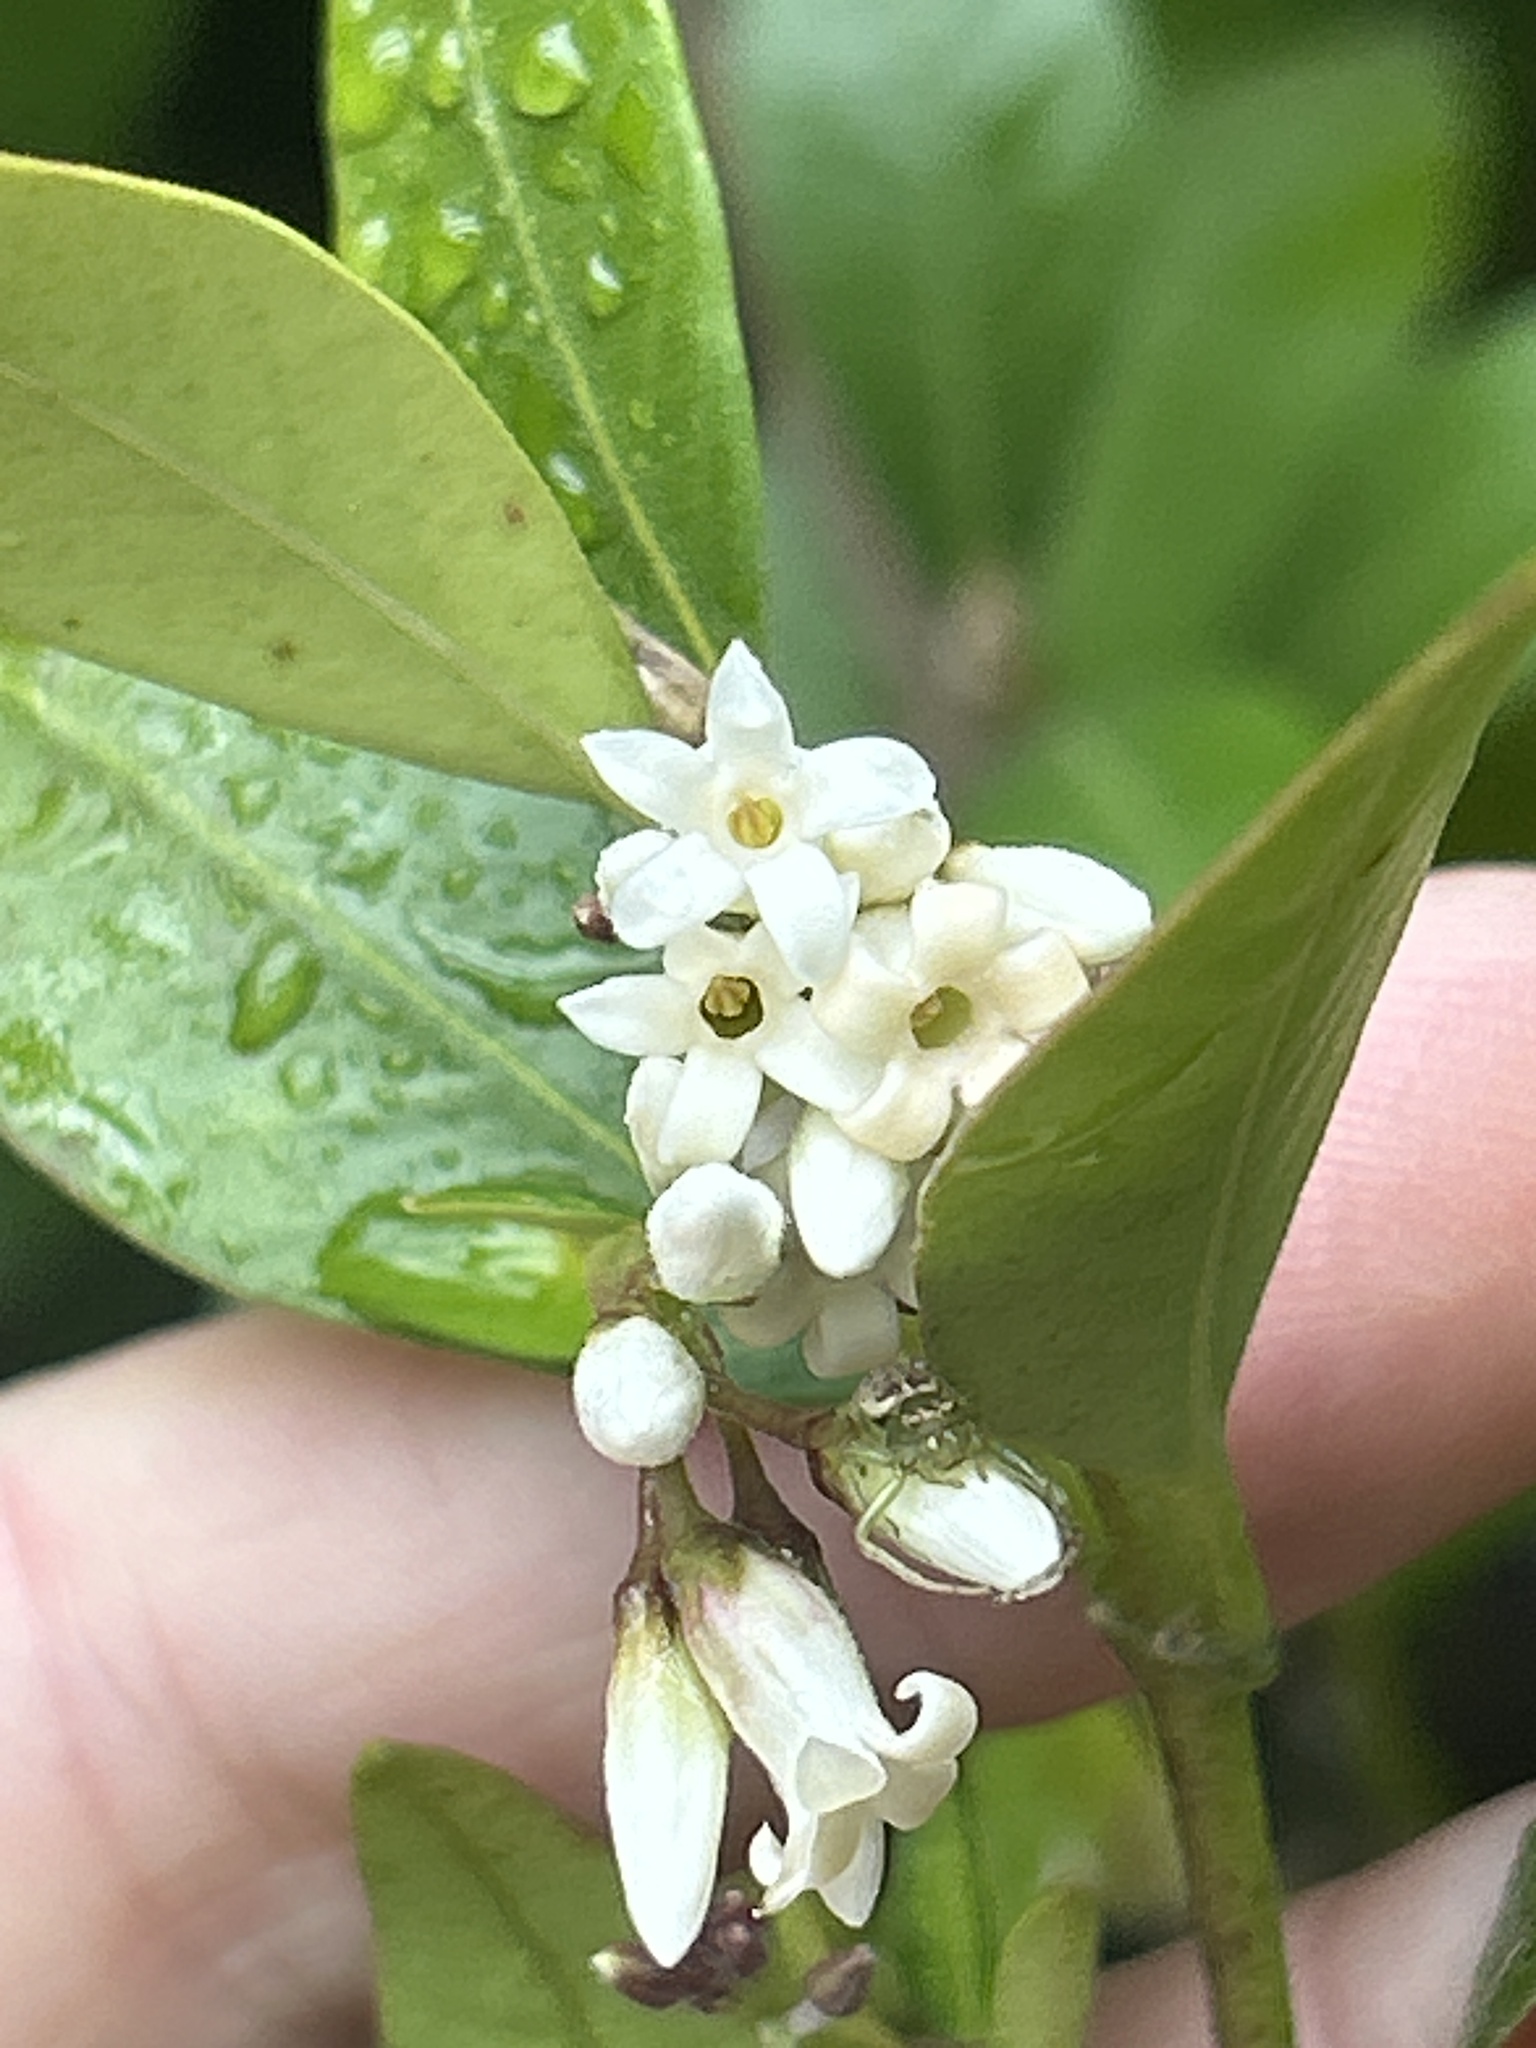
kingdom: Plantae
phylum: Tracheophyta
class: Magnoliopsida
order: Gentianales
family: Apocynaceae
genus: Parsonsia
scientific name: Parsonsia heterophylla
